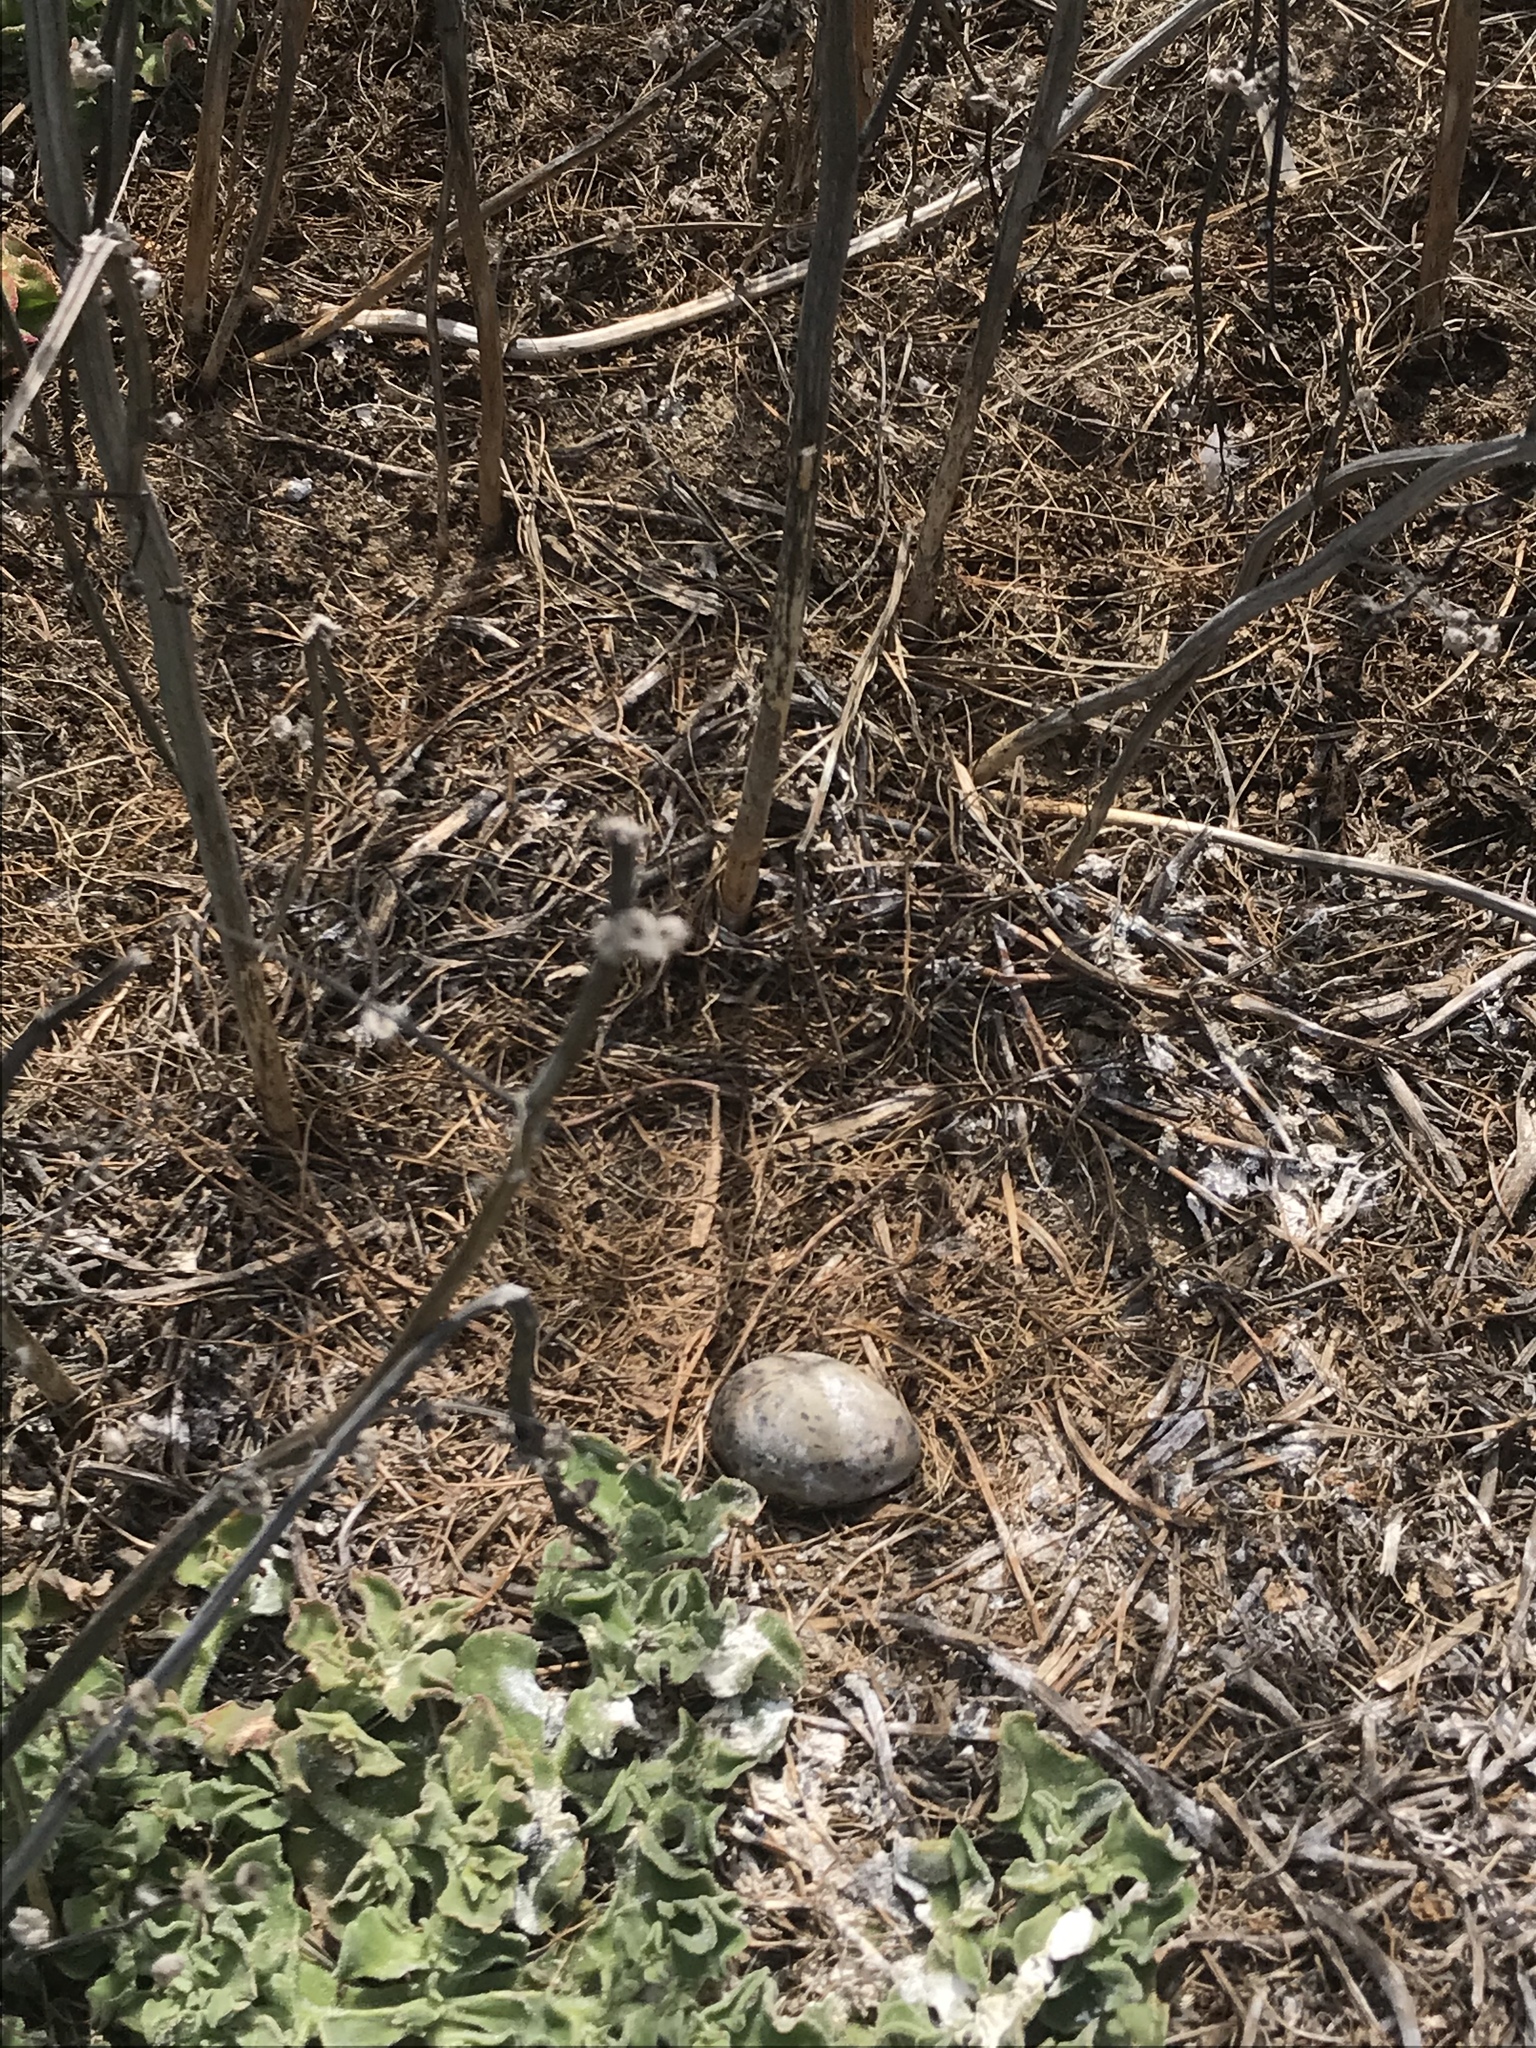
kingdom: Animalia
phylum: Chordata
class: Aves
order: Charadriiformes
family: Laridae
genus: Larus
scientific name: Larus occidentalis
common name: Western gull
